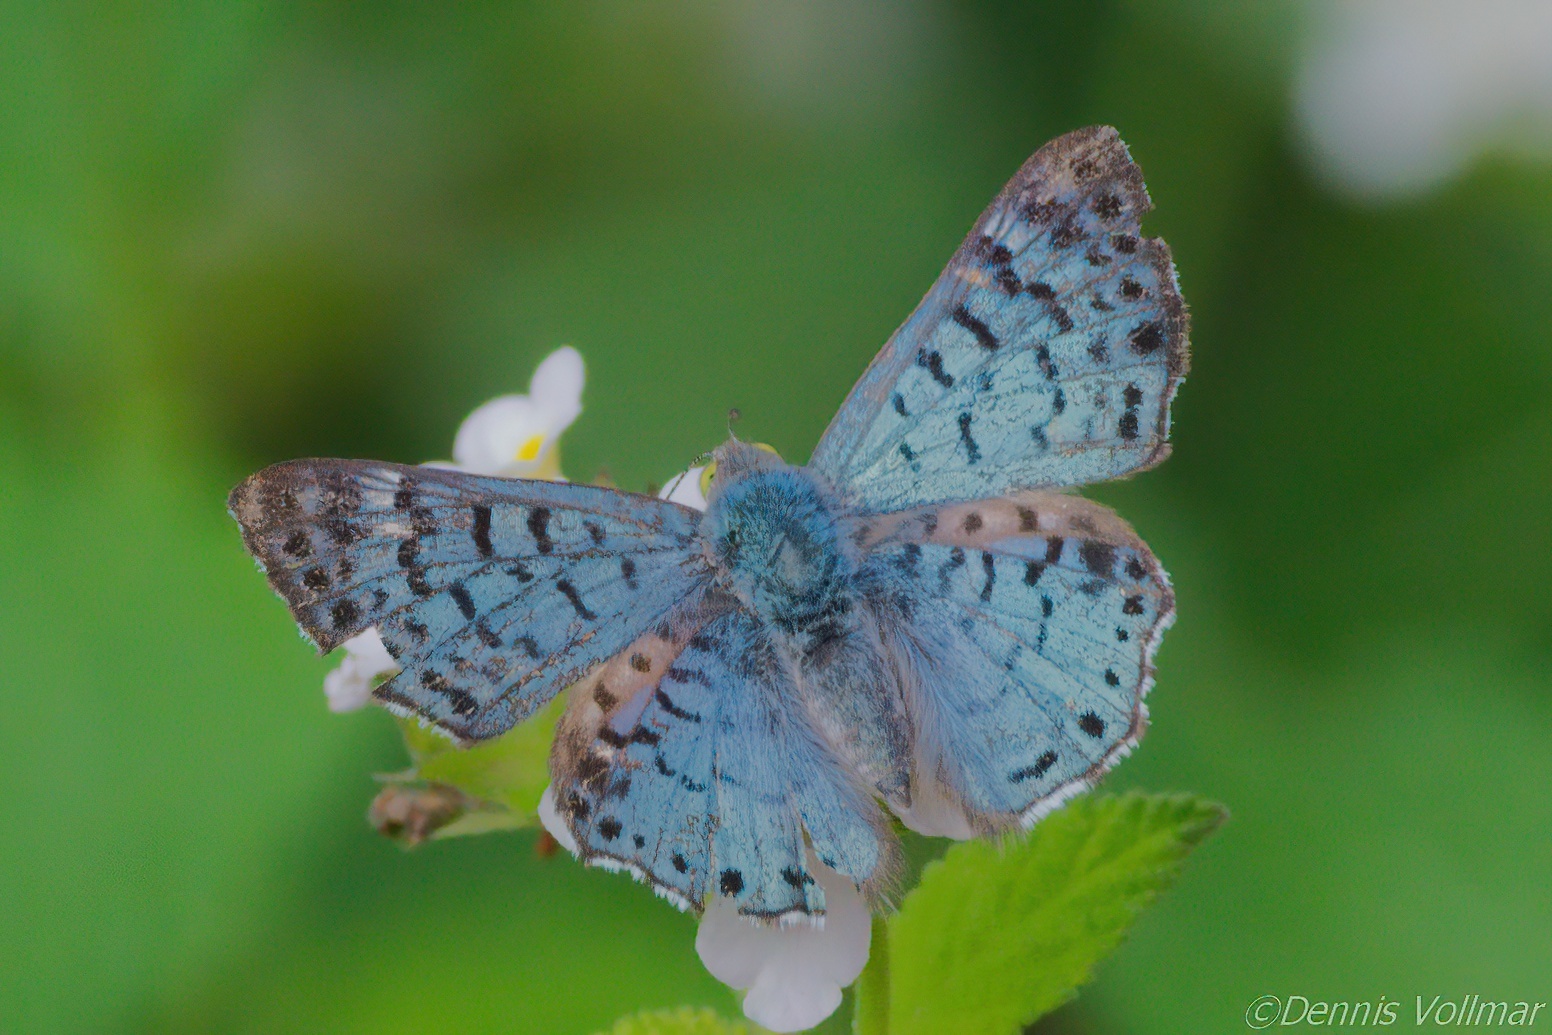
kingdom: Animalia
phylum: Arthropoda
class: Insecta
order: Lepidoptera
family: Riodinidae
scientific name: Riodinidae
